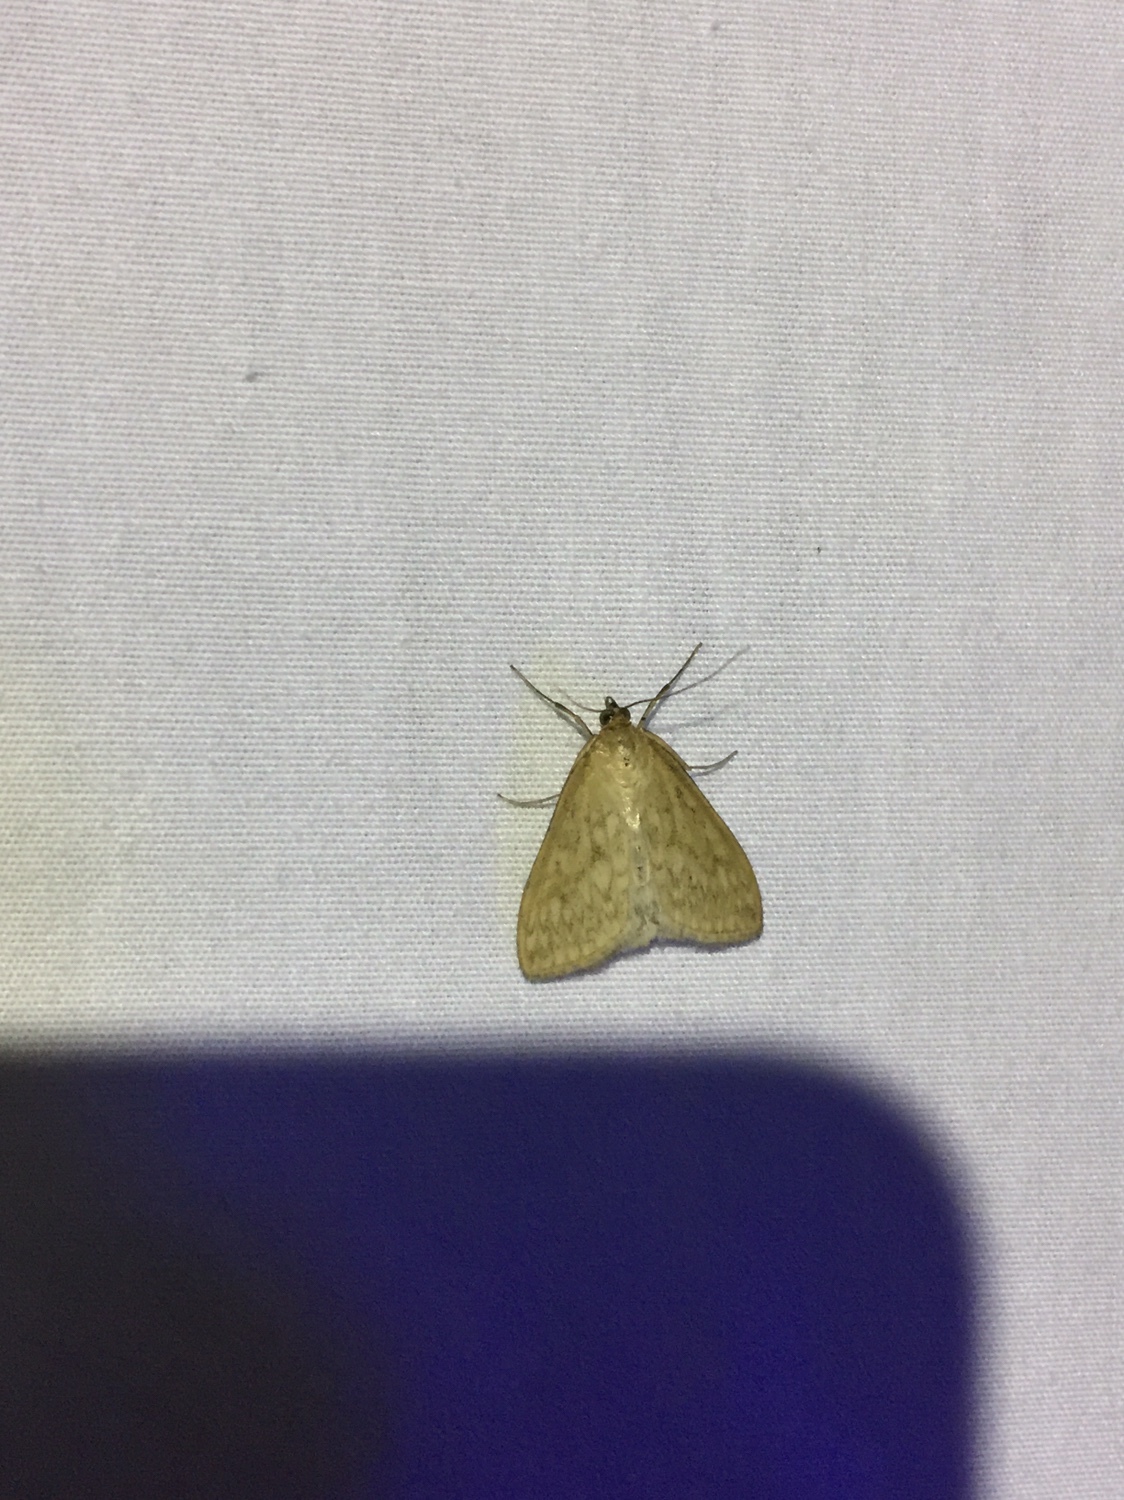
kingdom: Animalia
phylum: Arthropoda
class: Insecta
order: Lepidoptera
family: Crambidae
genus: Sitochroa
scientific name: Sitochroa chortalis
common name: Dimorphic sitochroa moth
